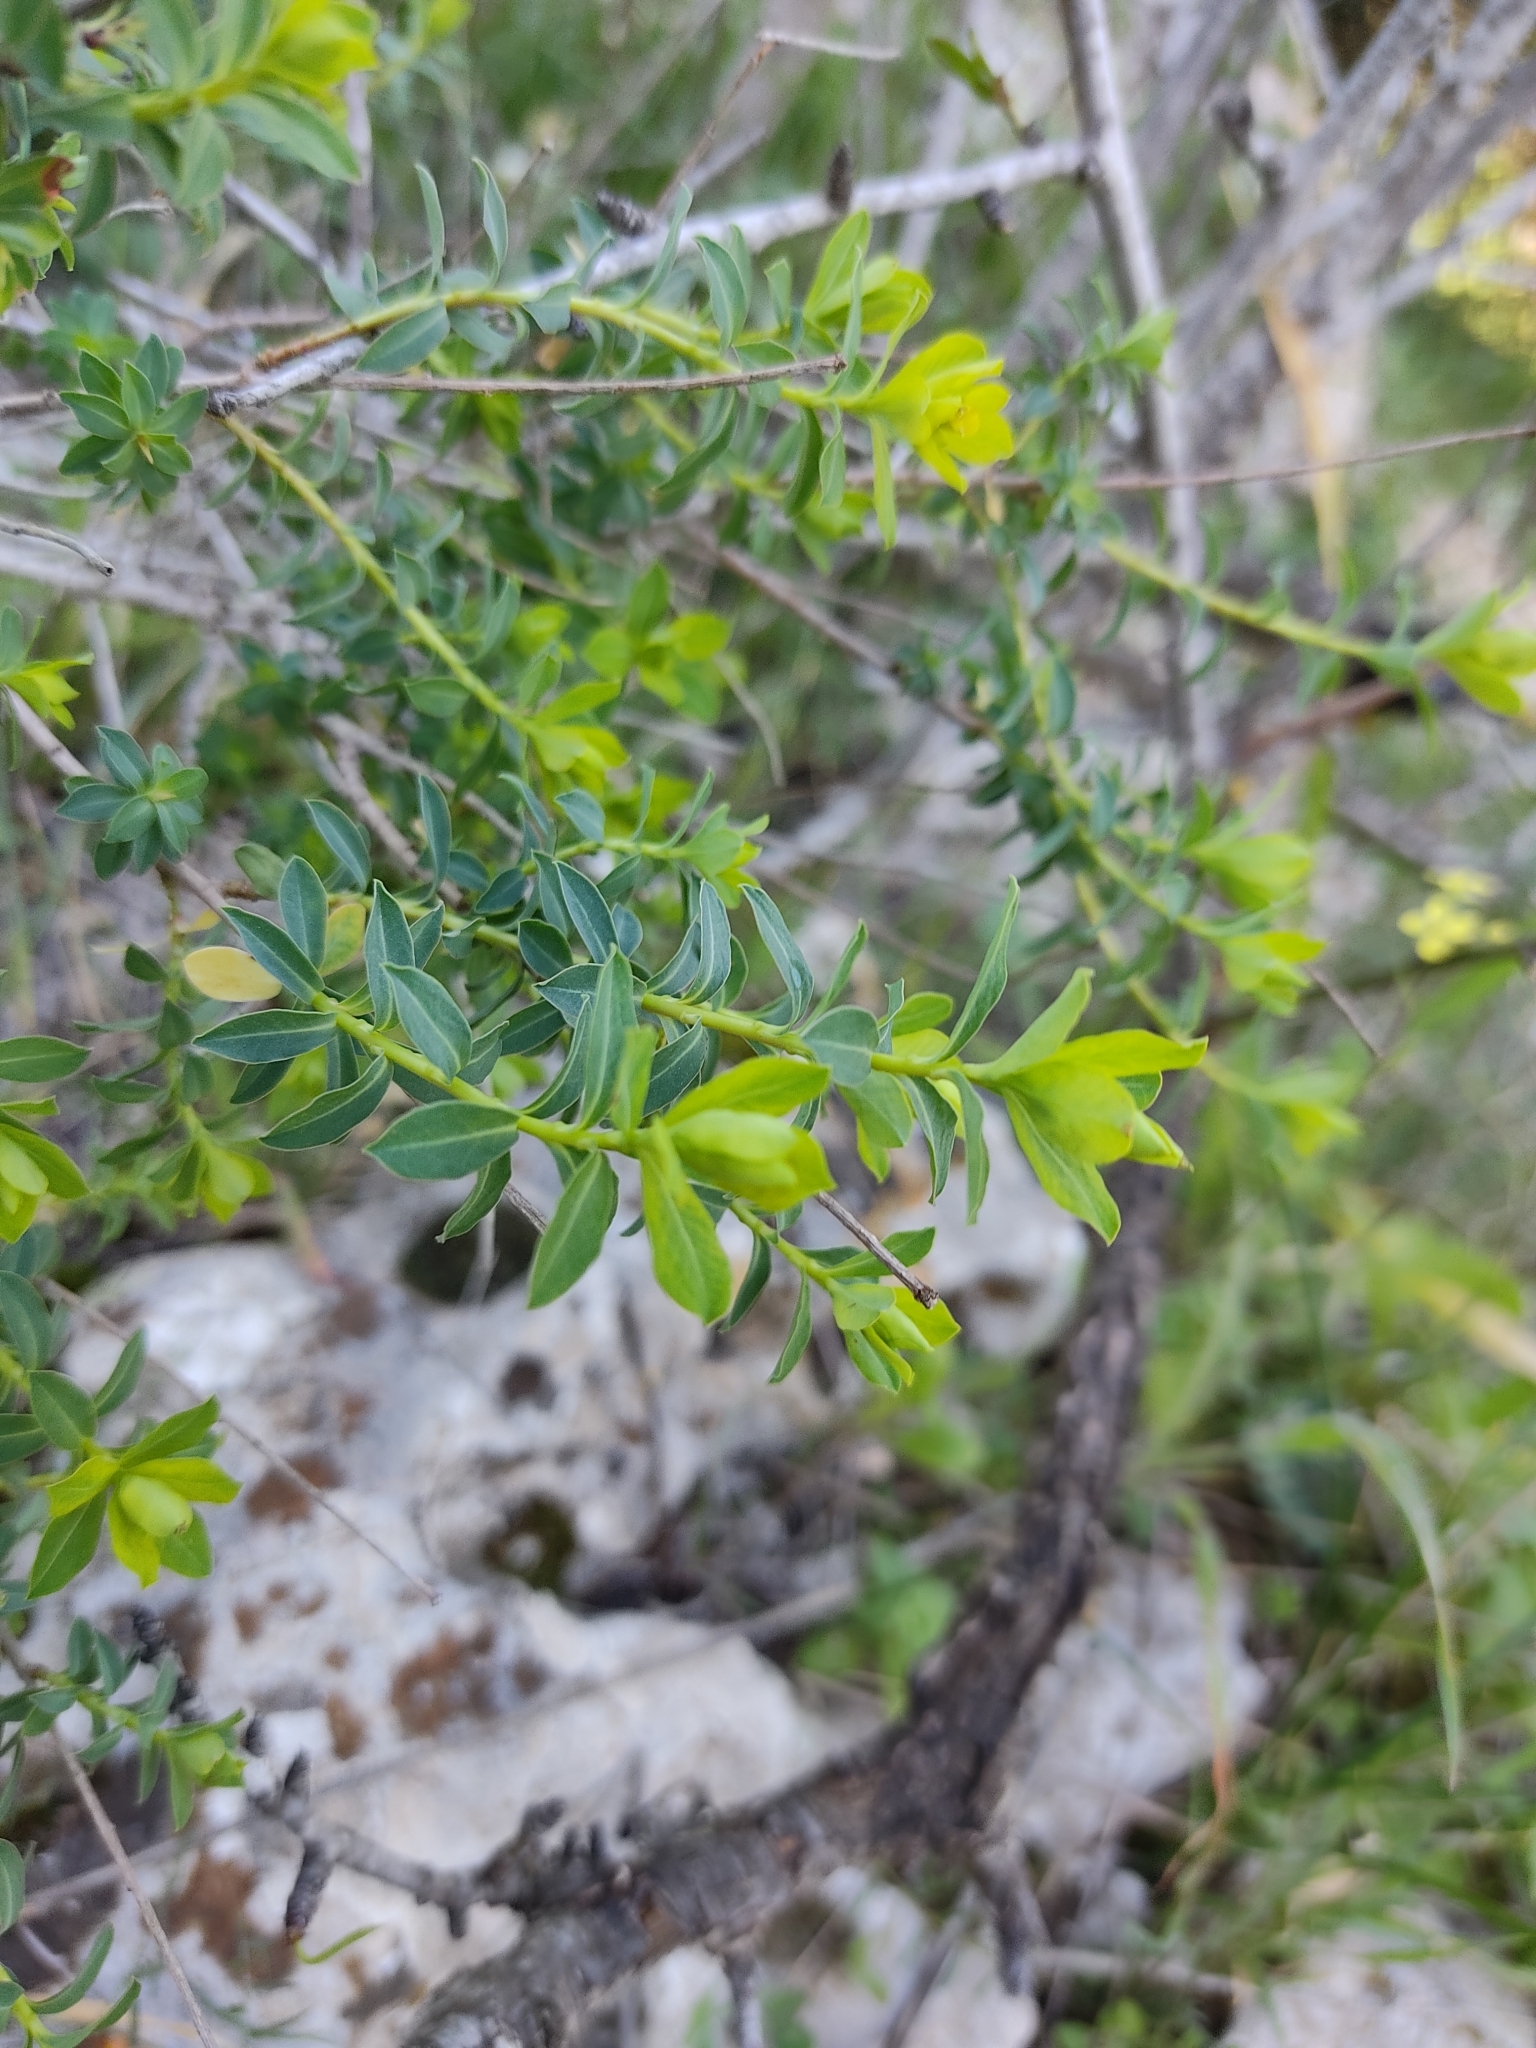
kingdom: Plantae
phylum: Tracheophyta
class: Magnoliopsida
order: Malpighiales
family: Euphorbiaceae
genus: Euphorbia
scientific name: Euphorbia hierosolymitana
